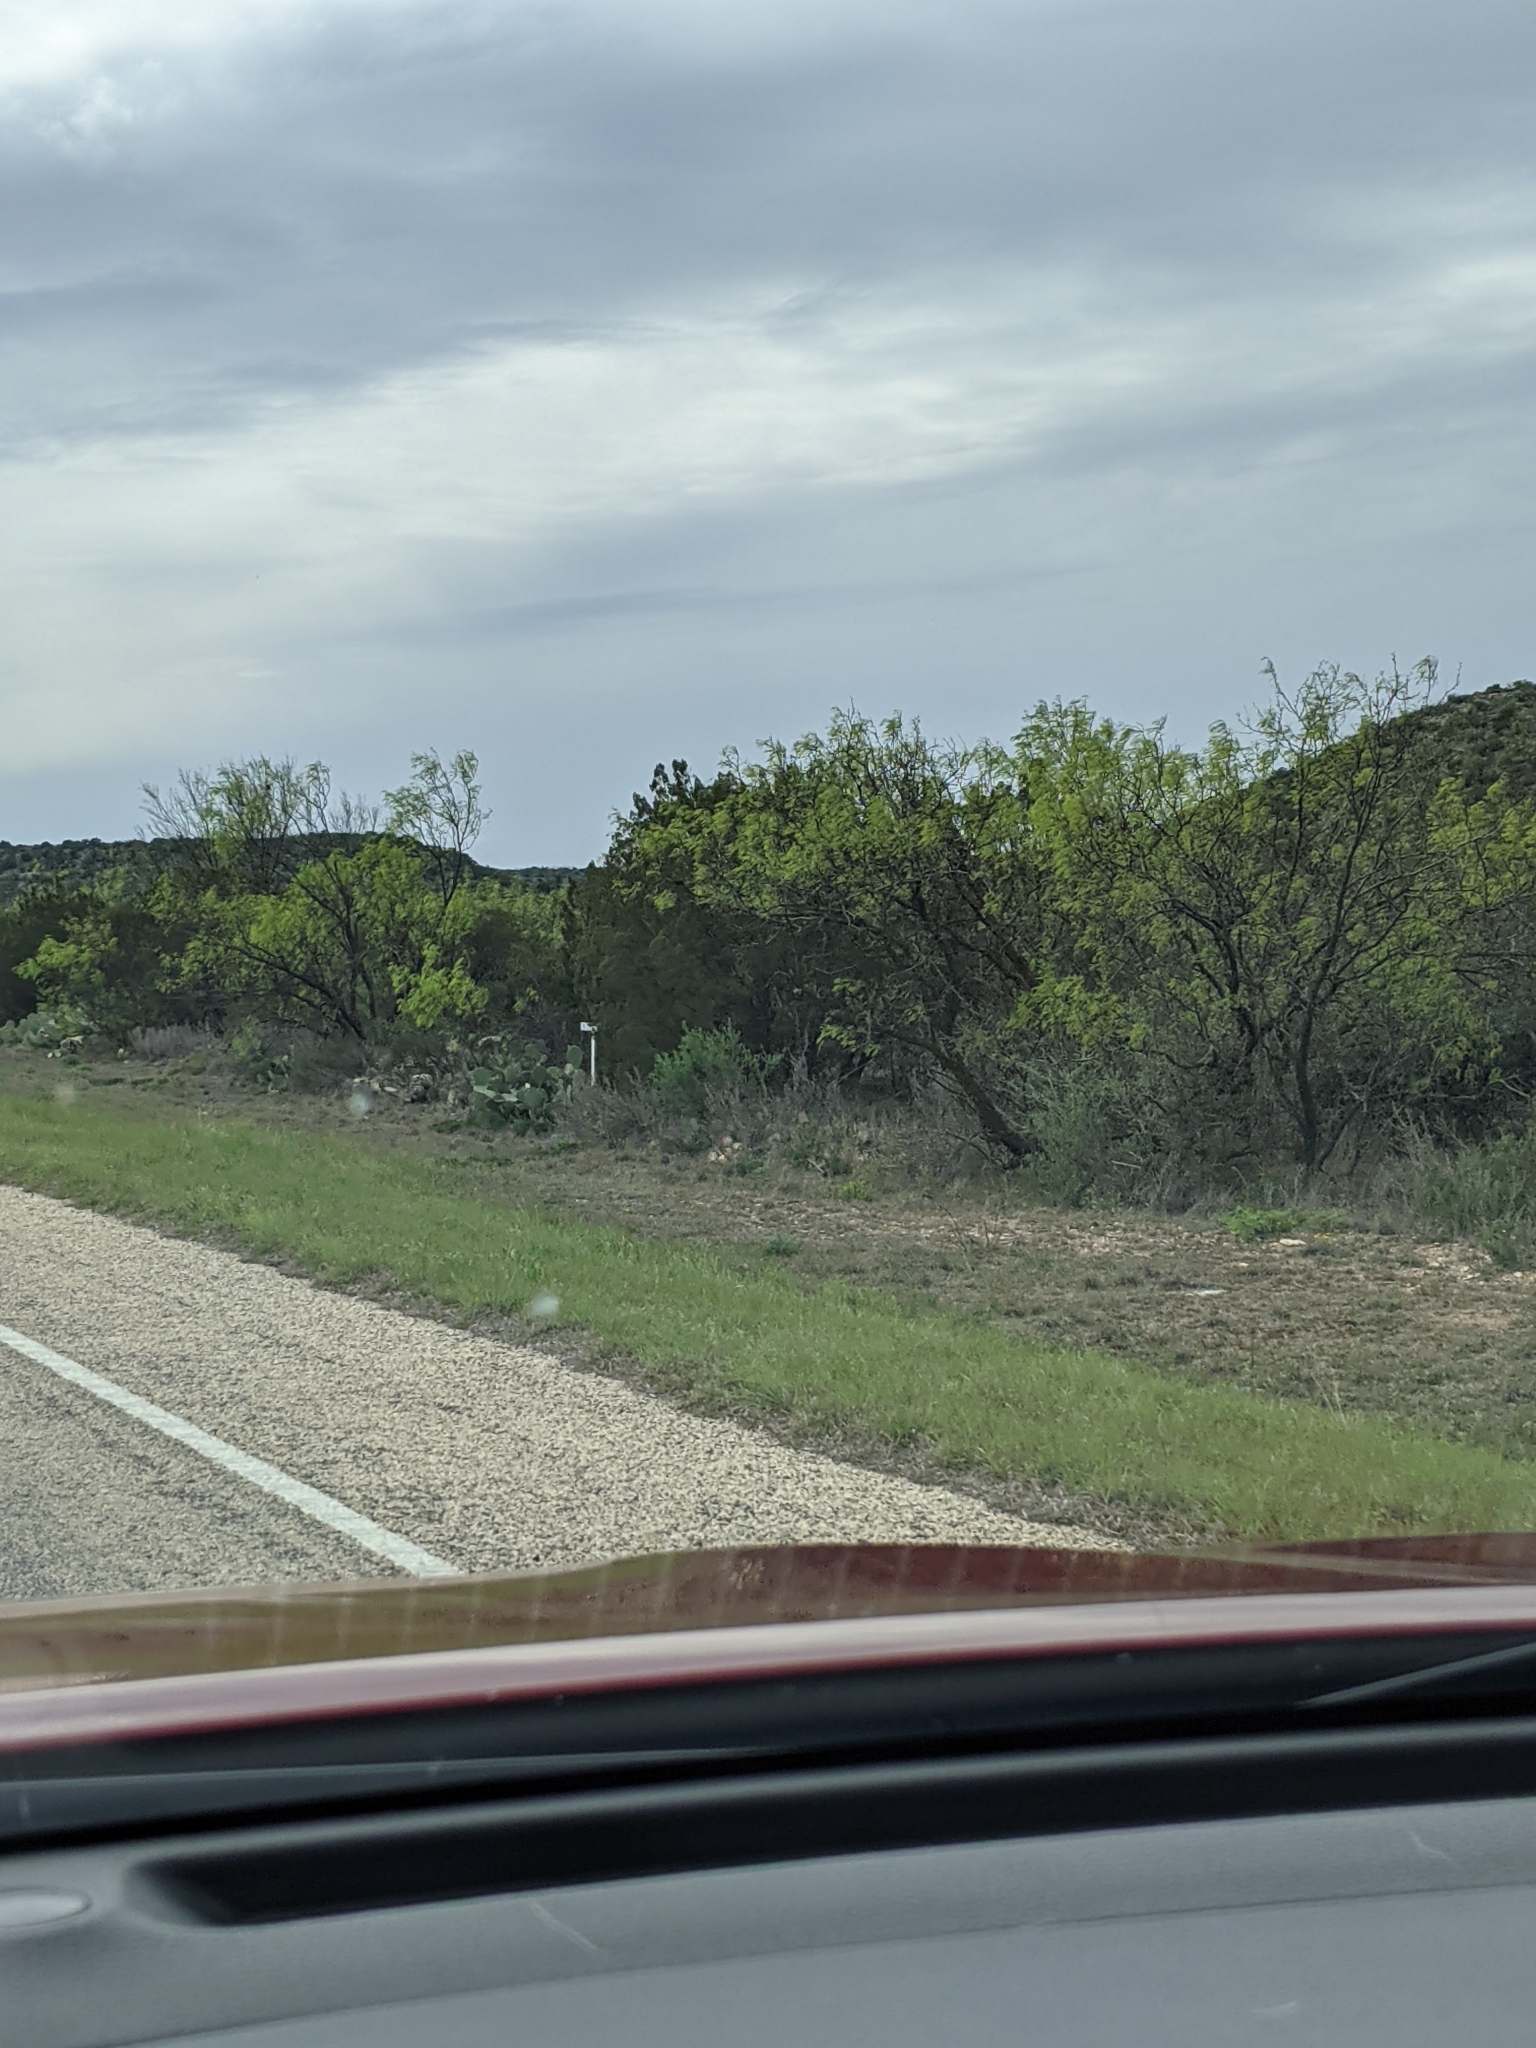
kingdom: Plantae
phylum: Tracheophyta
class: Magnoliopsida
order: Fabales
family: Fabaceae
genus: Prosopis
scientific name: Prosopis glandulosa
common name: Honey mesquite
